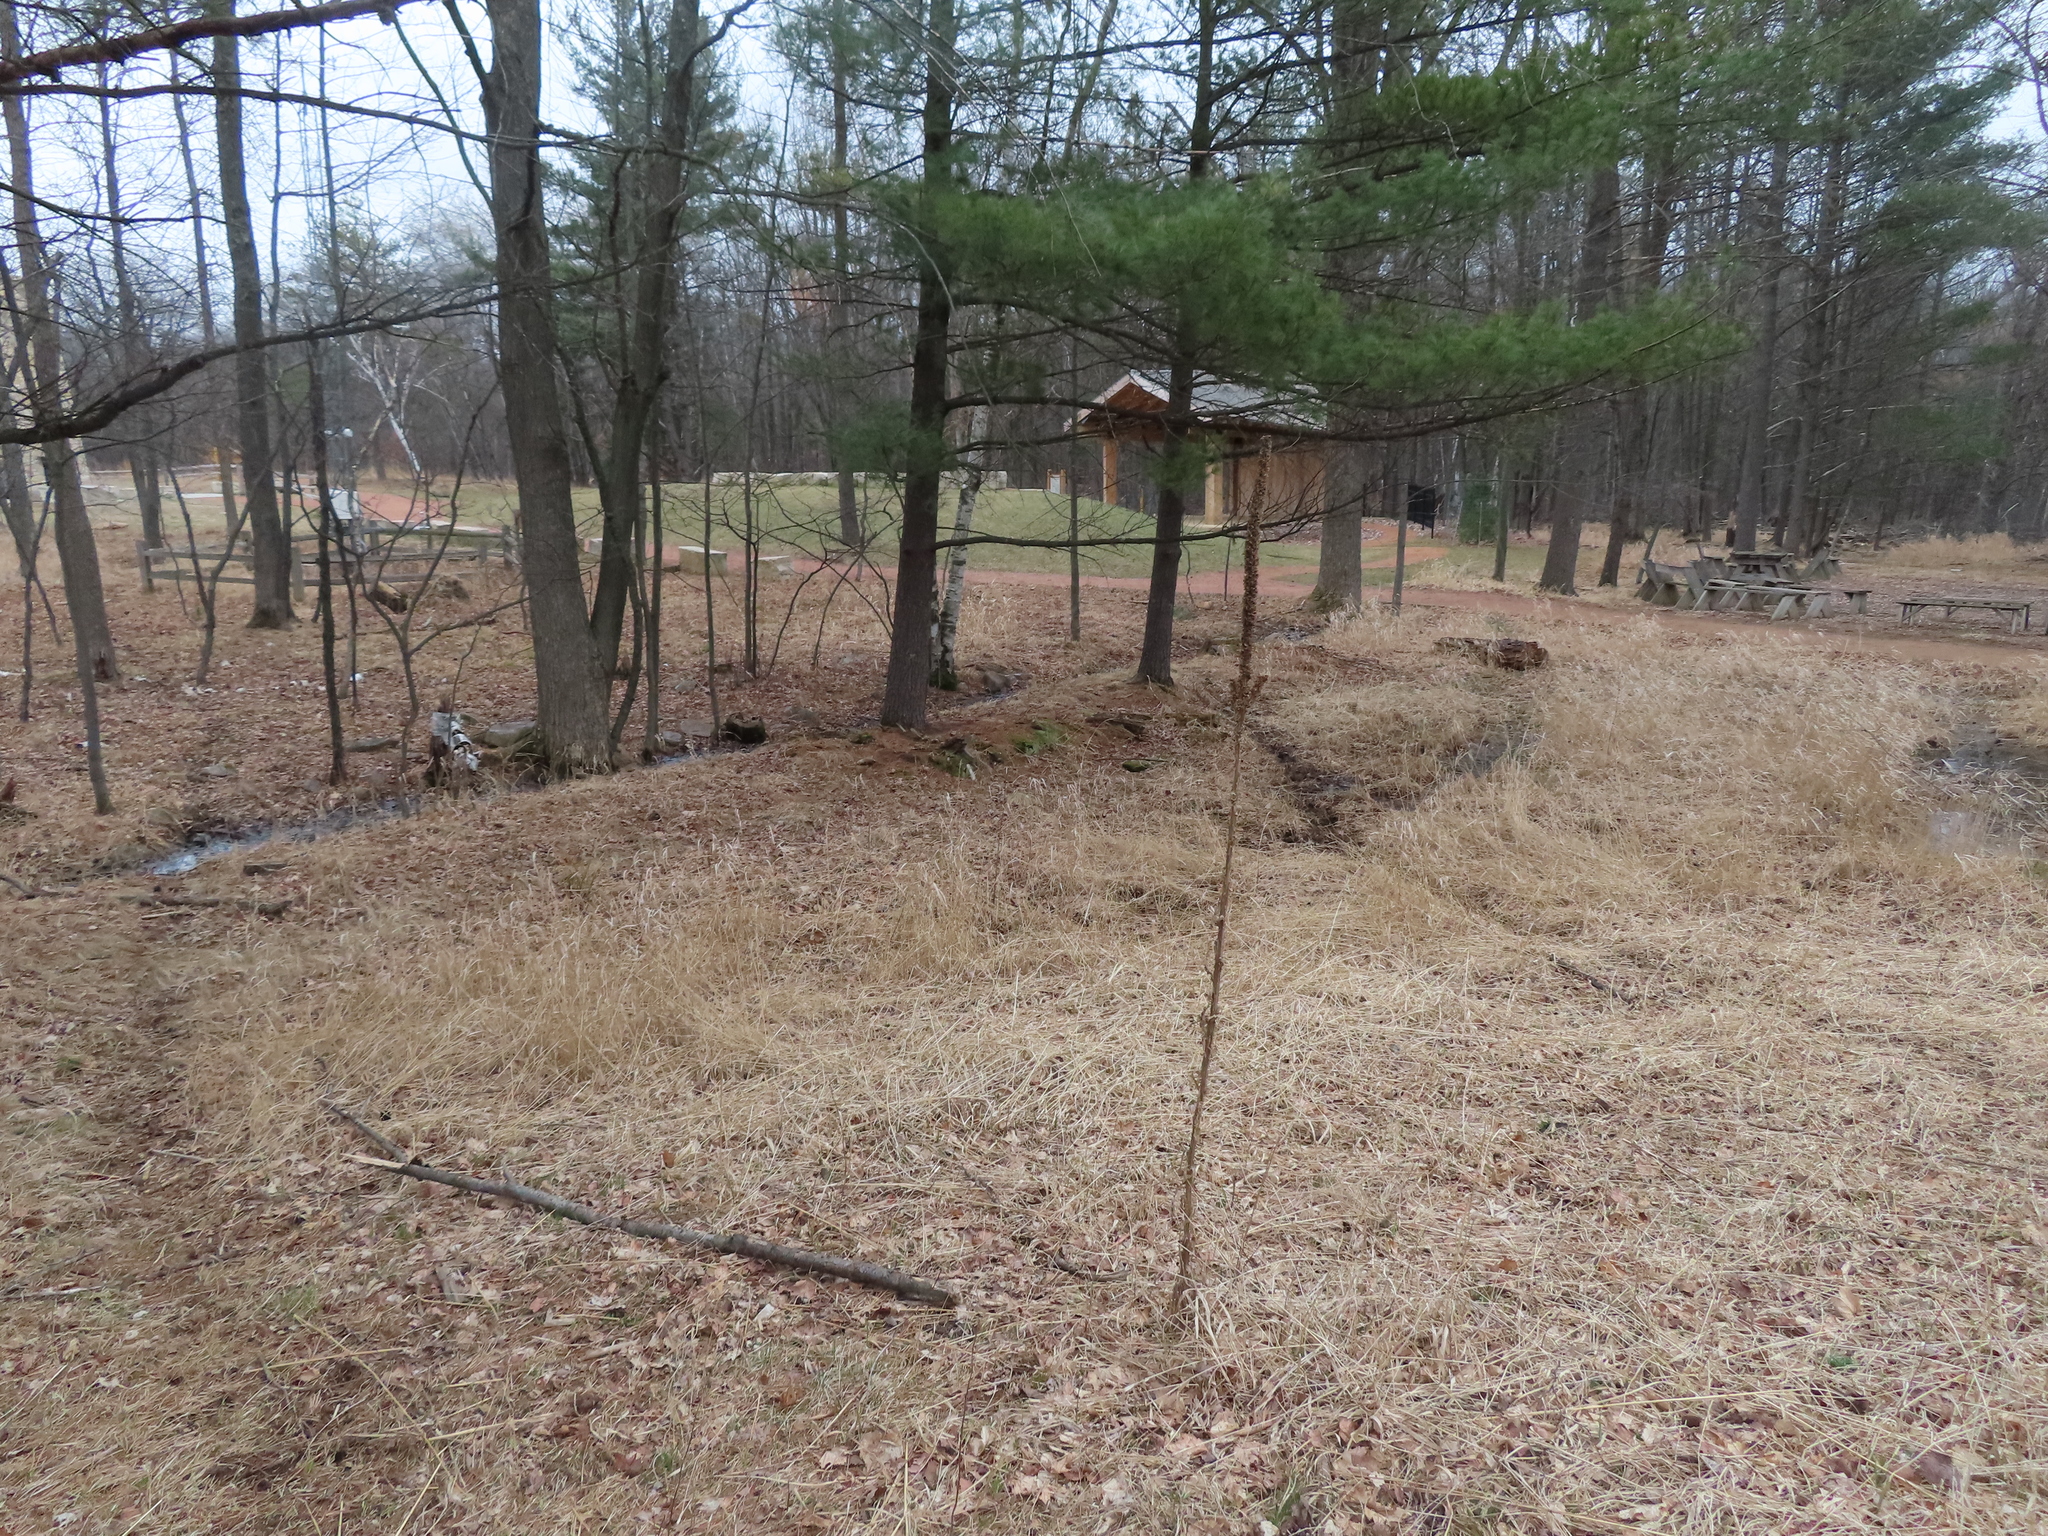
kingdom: Plantae
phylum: Tracheophyta
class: Magnoliopsida
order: Lamiales
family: Scrophulariaceae
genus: Verbascum
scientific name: Verbascum thapsus
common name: Common mullein
